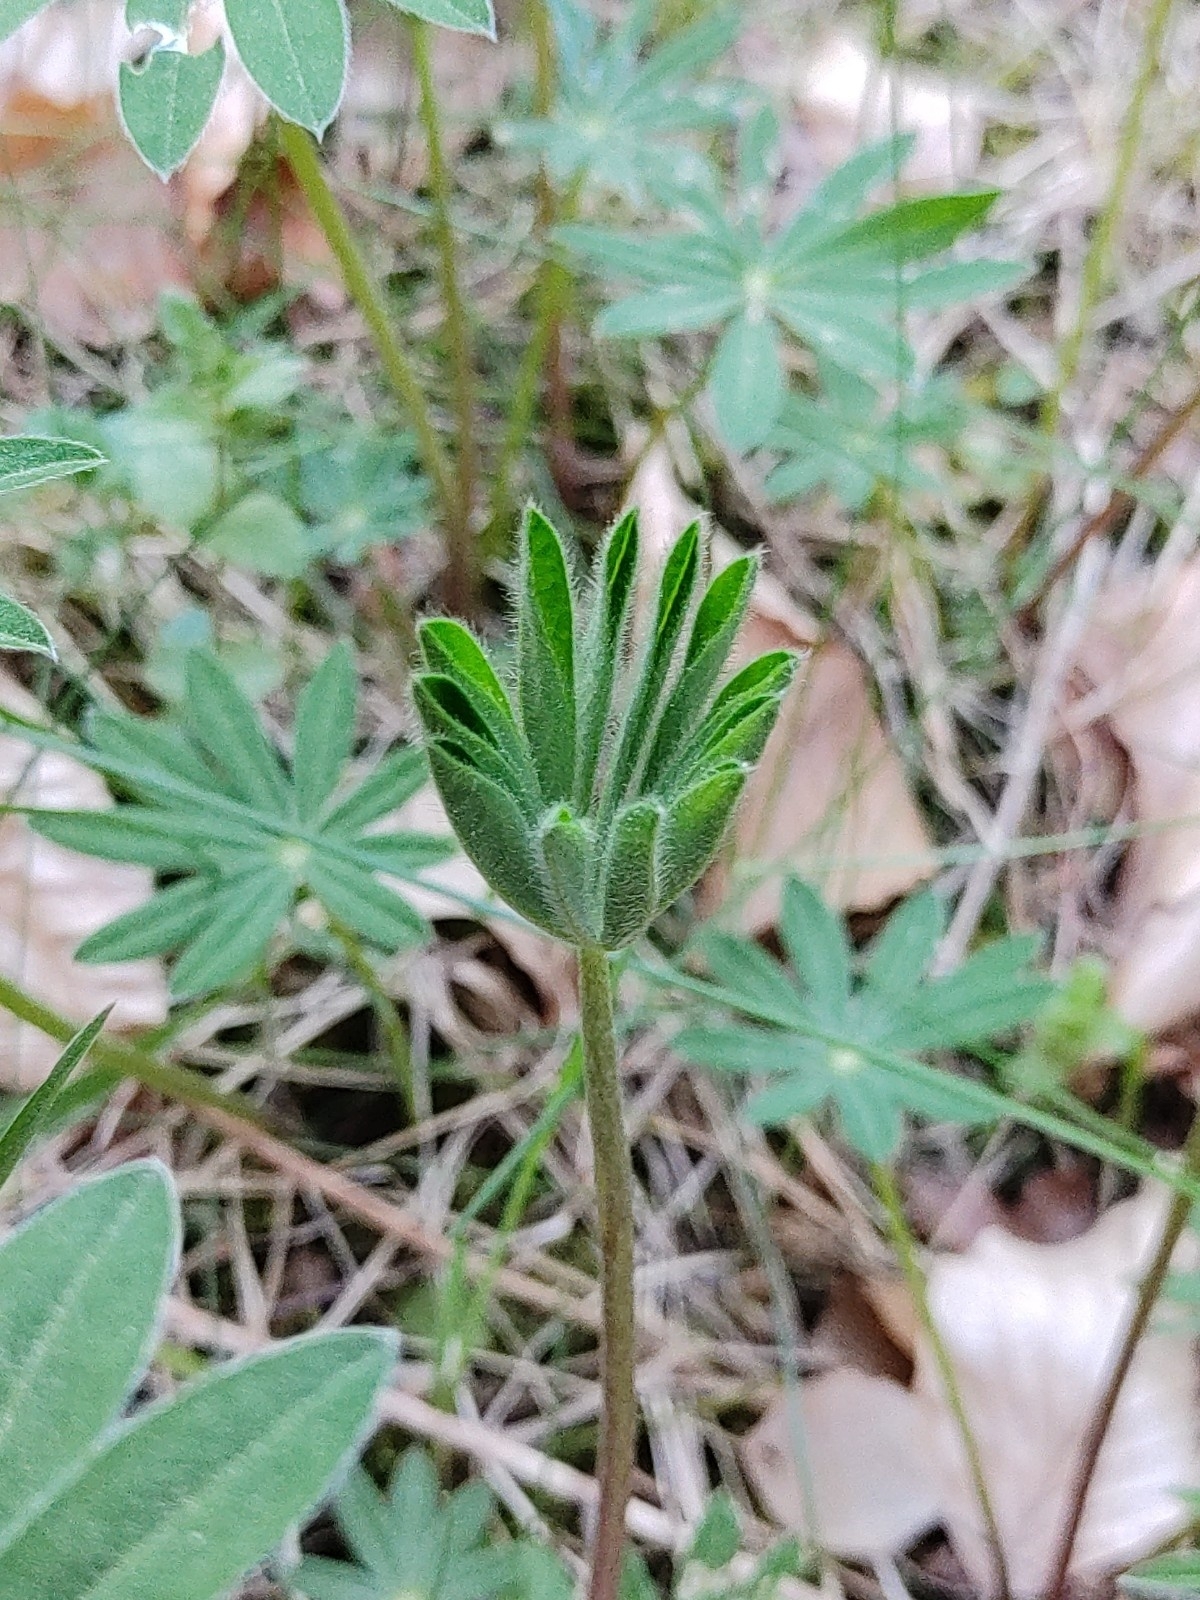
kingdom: Plantae
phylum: Tracheophyta
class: Magnoliopsida
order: Fabales
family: Fabaceae
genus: Lupinus
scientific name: Lupinus polyphyllus
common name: Garden lupin
